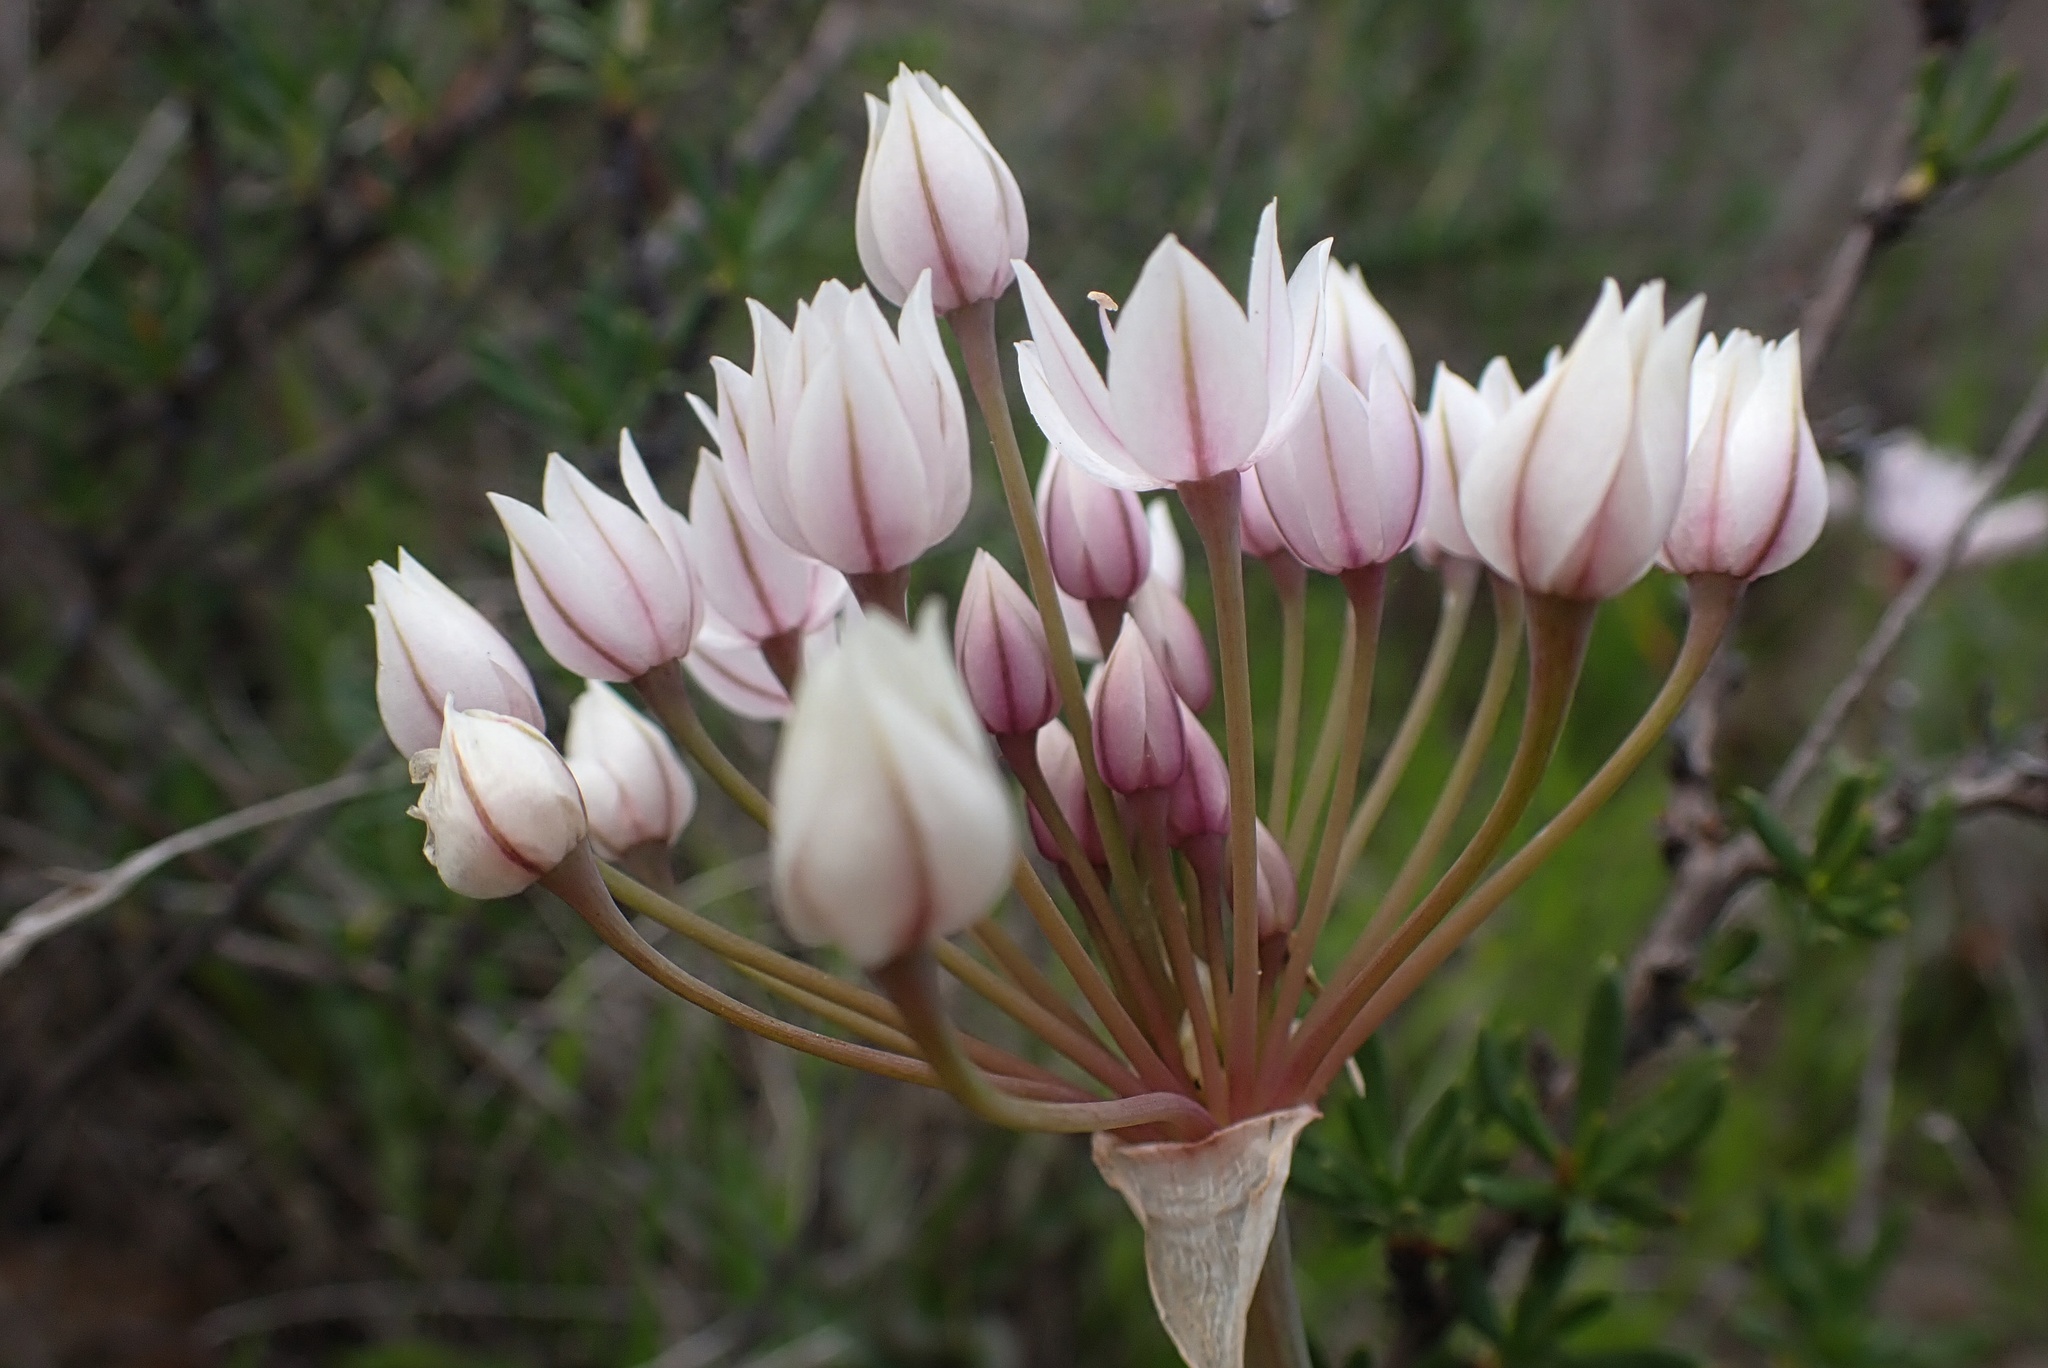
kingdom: Plantae
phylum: Tracheophyta
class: Liliopsida
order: Asparagales
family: Amaryllidaceae
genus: Allium
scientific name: Allium praecox
